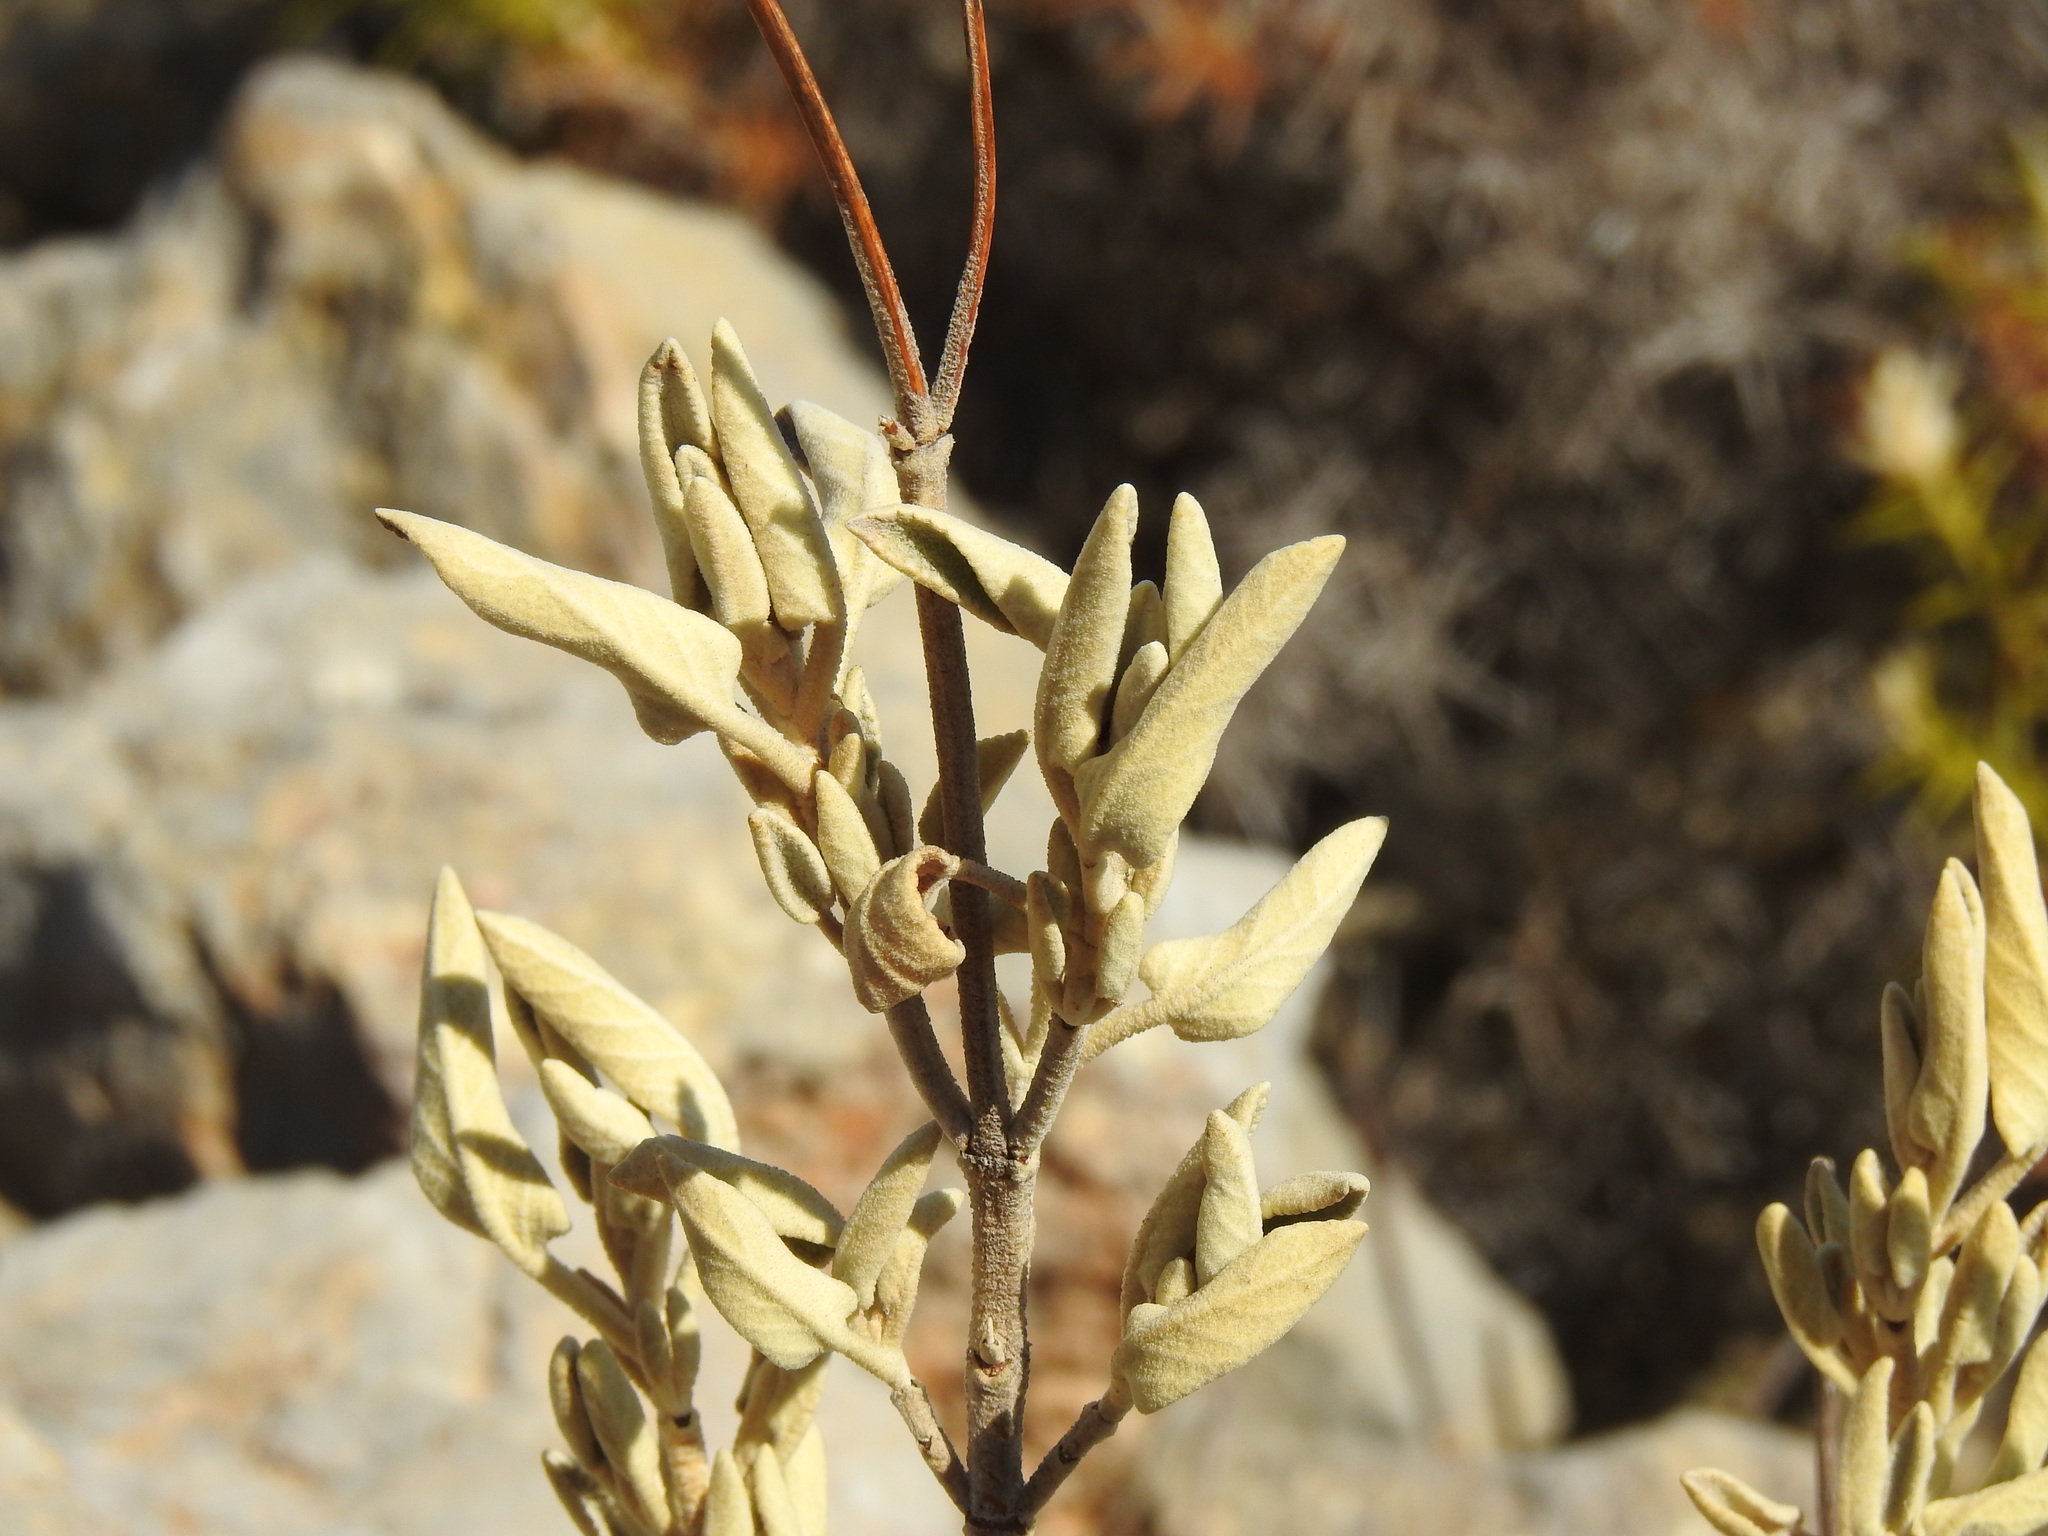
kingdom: Plantae
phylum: Tracheophyta
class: Magnoliopsida
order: Lamiales
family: Lamiaceae
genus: Phlomis
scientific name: Phlomis purpurea
